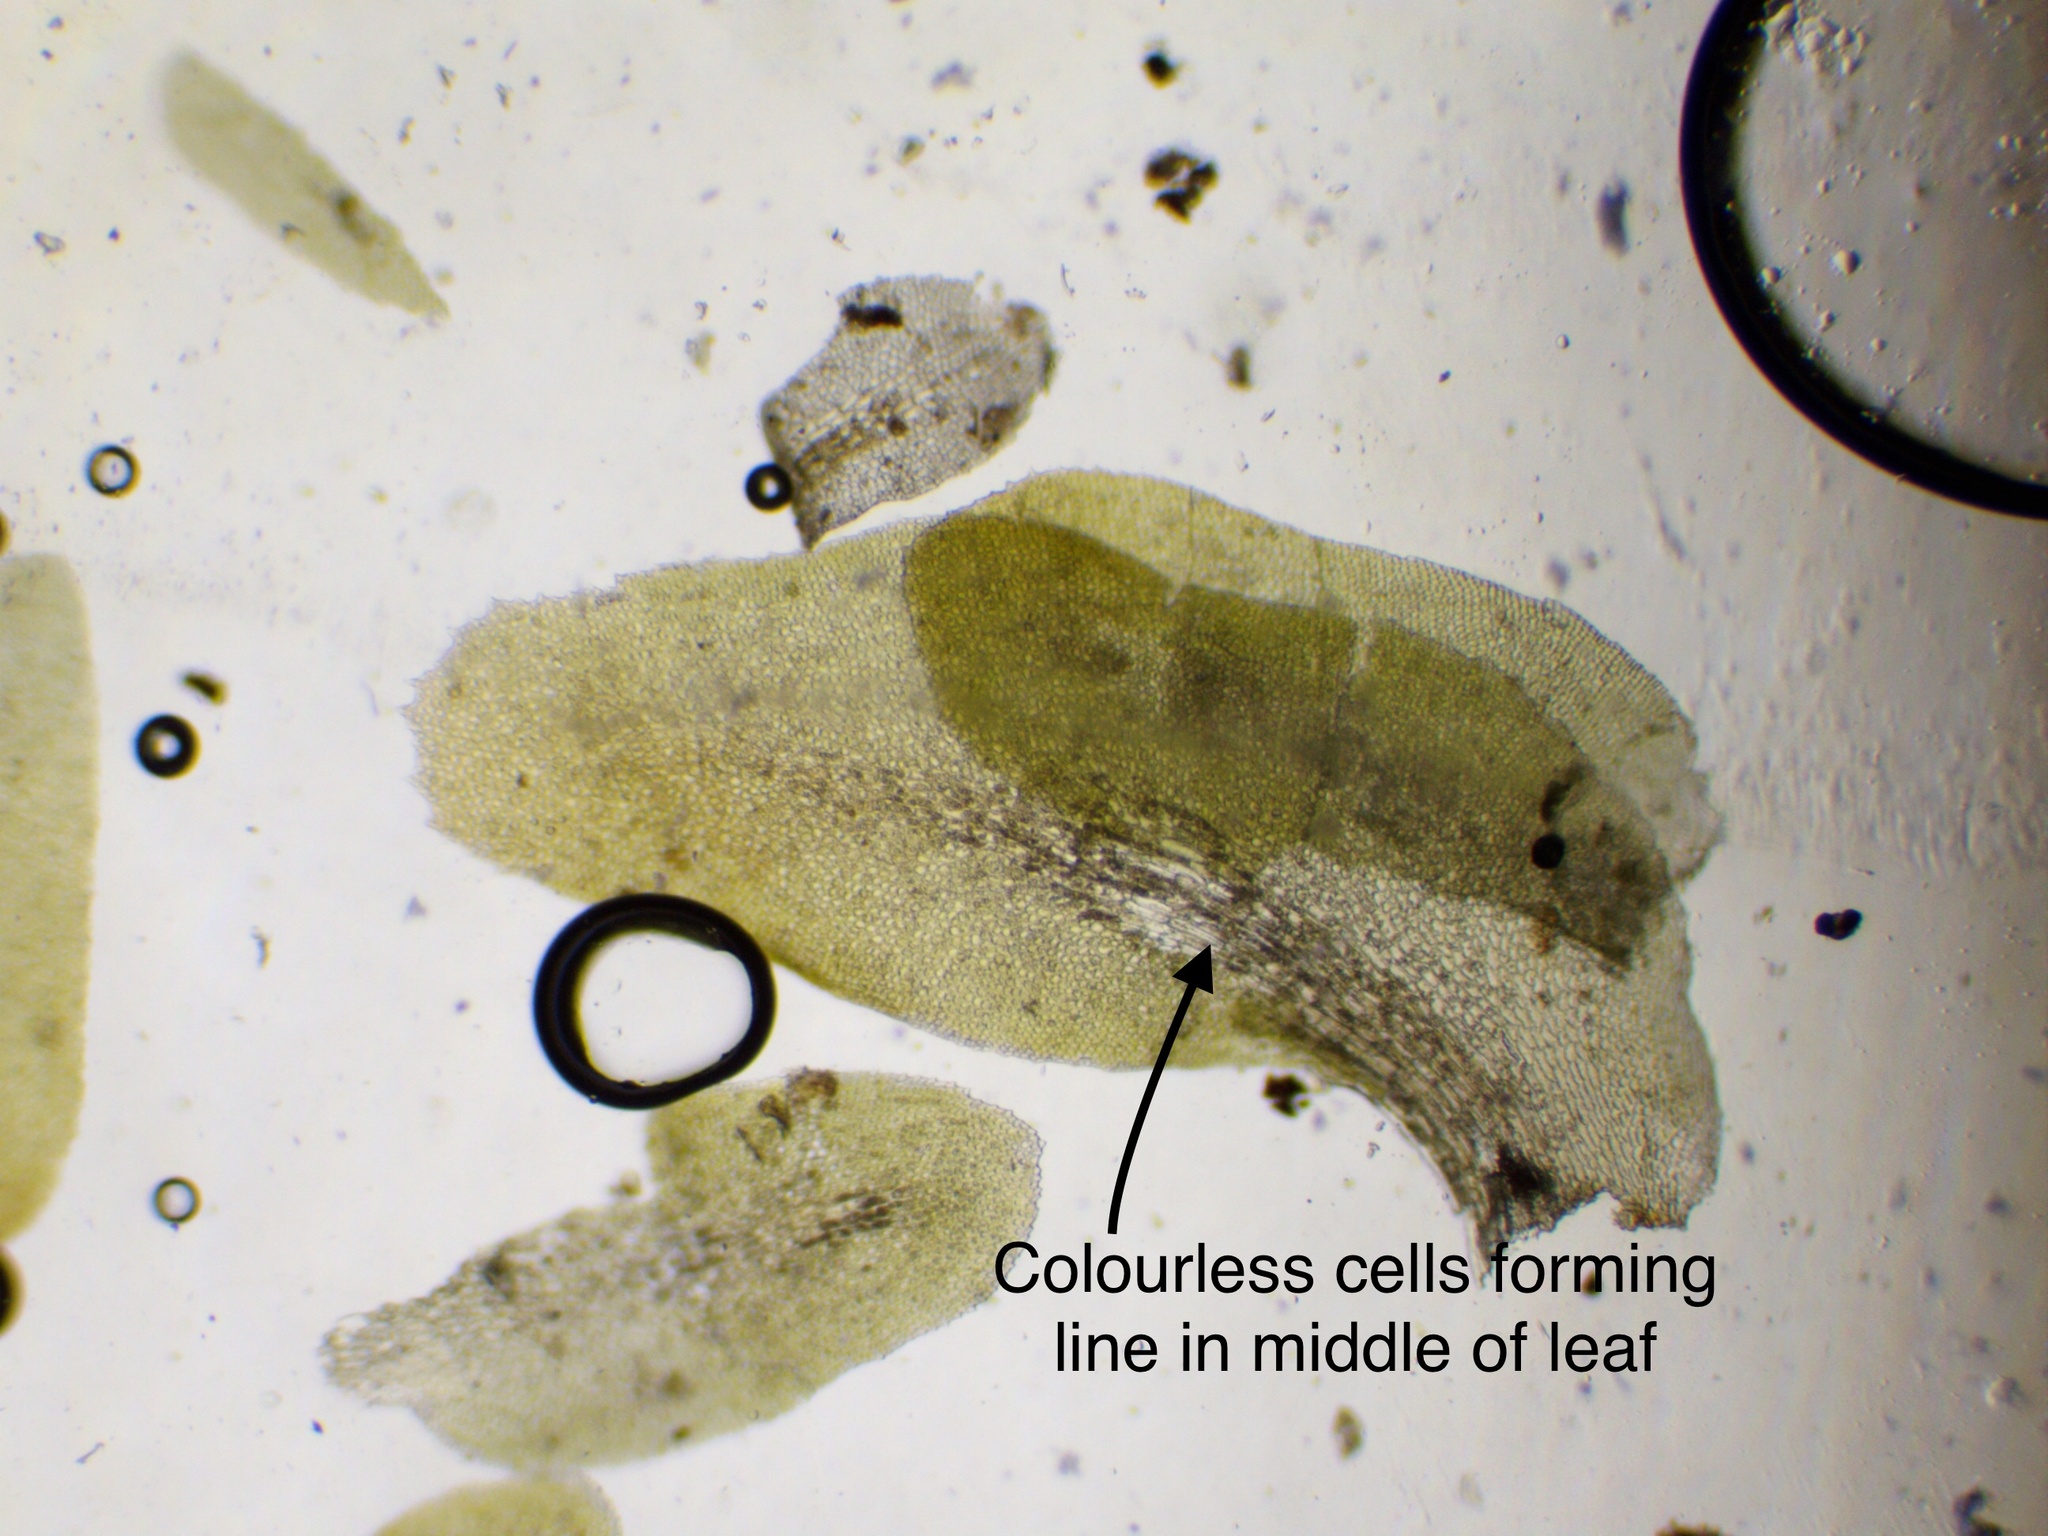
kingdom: Plantae
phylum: Marchantiophyta
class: Jungermanniopsida
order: Jungermanniales
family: Scapaniaceae
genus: Diplophyllum
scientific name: Diplophyllum albicans
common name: White earwort
